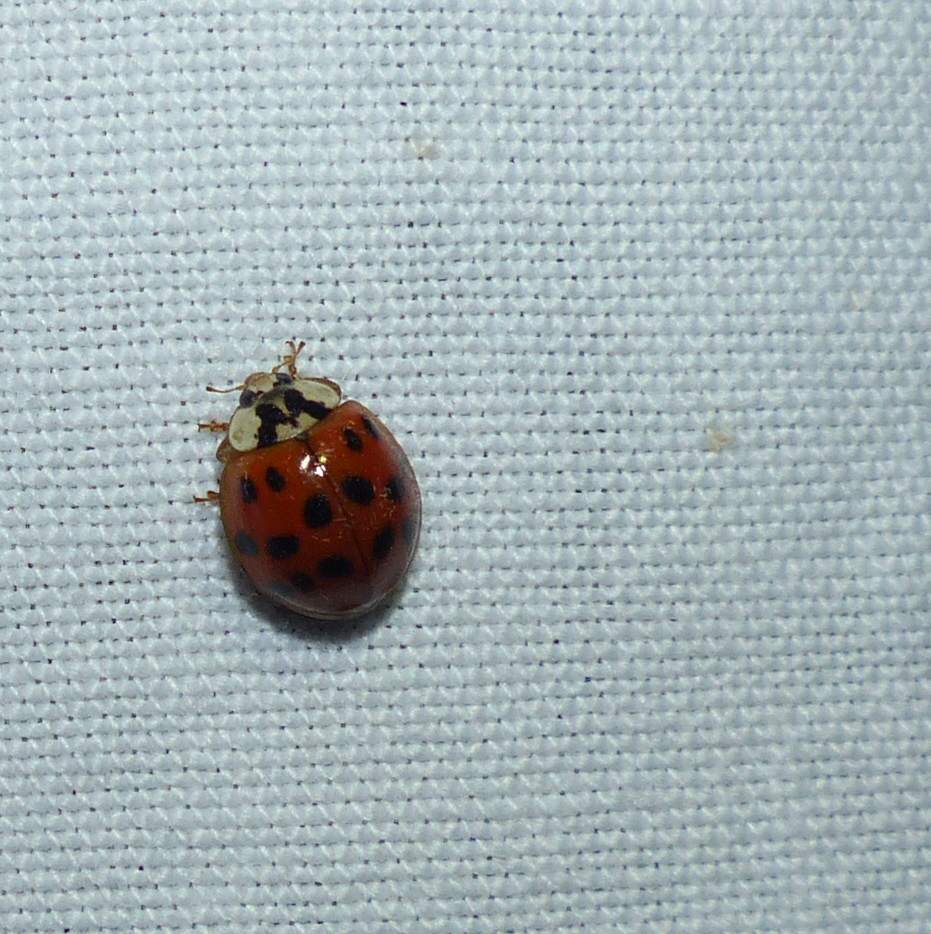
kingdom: Animalia
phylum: Arthropoda
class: Insecta
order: Coleoptera
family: Coccinellidae
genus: Harmonia
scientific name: Harmonia axyridis
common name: Harlequin ladybird
